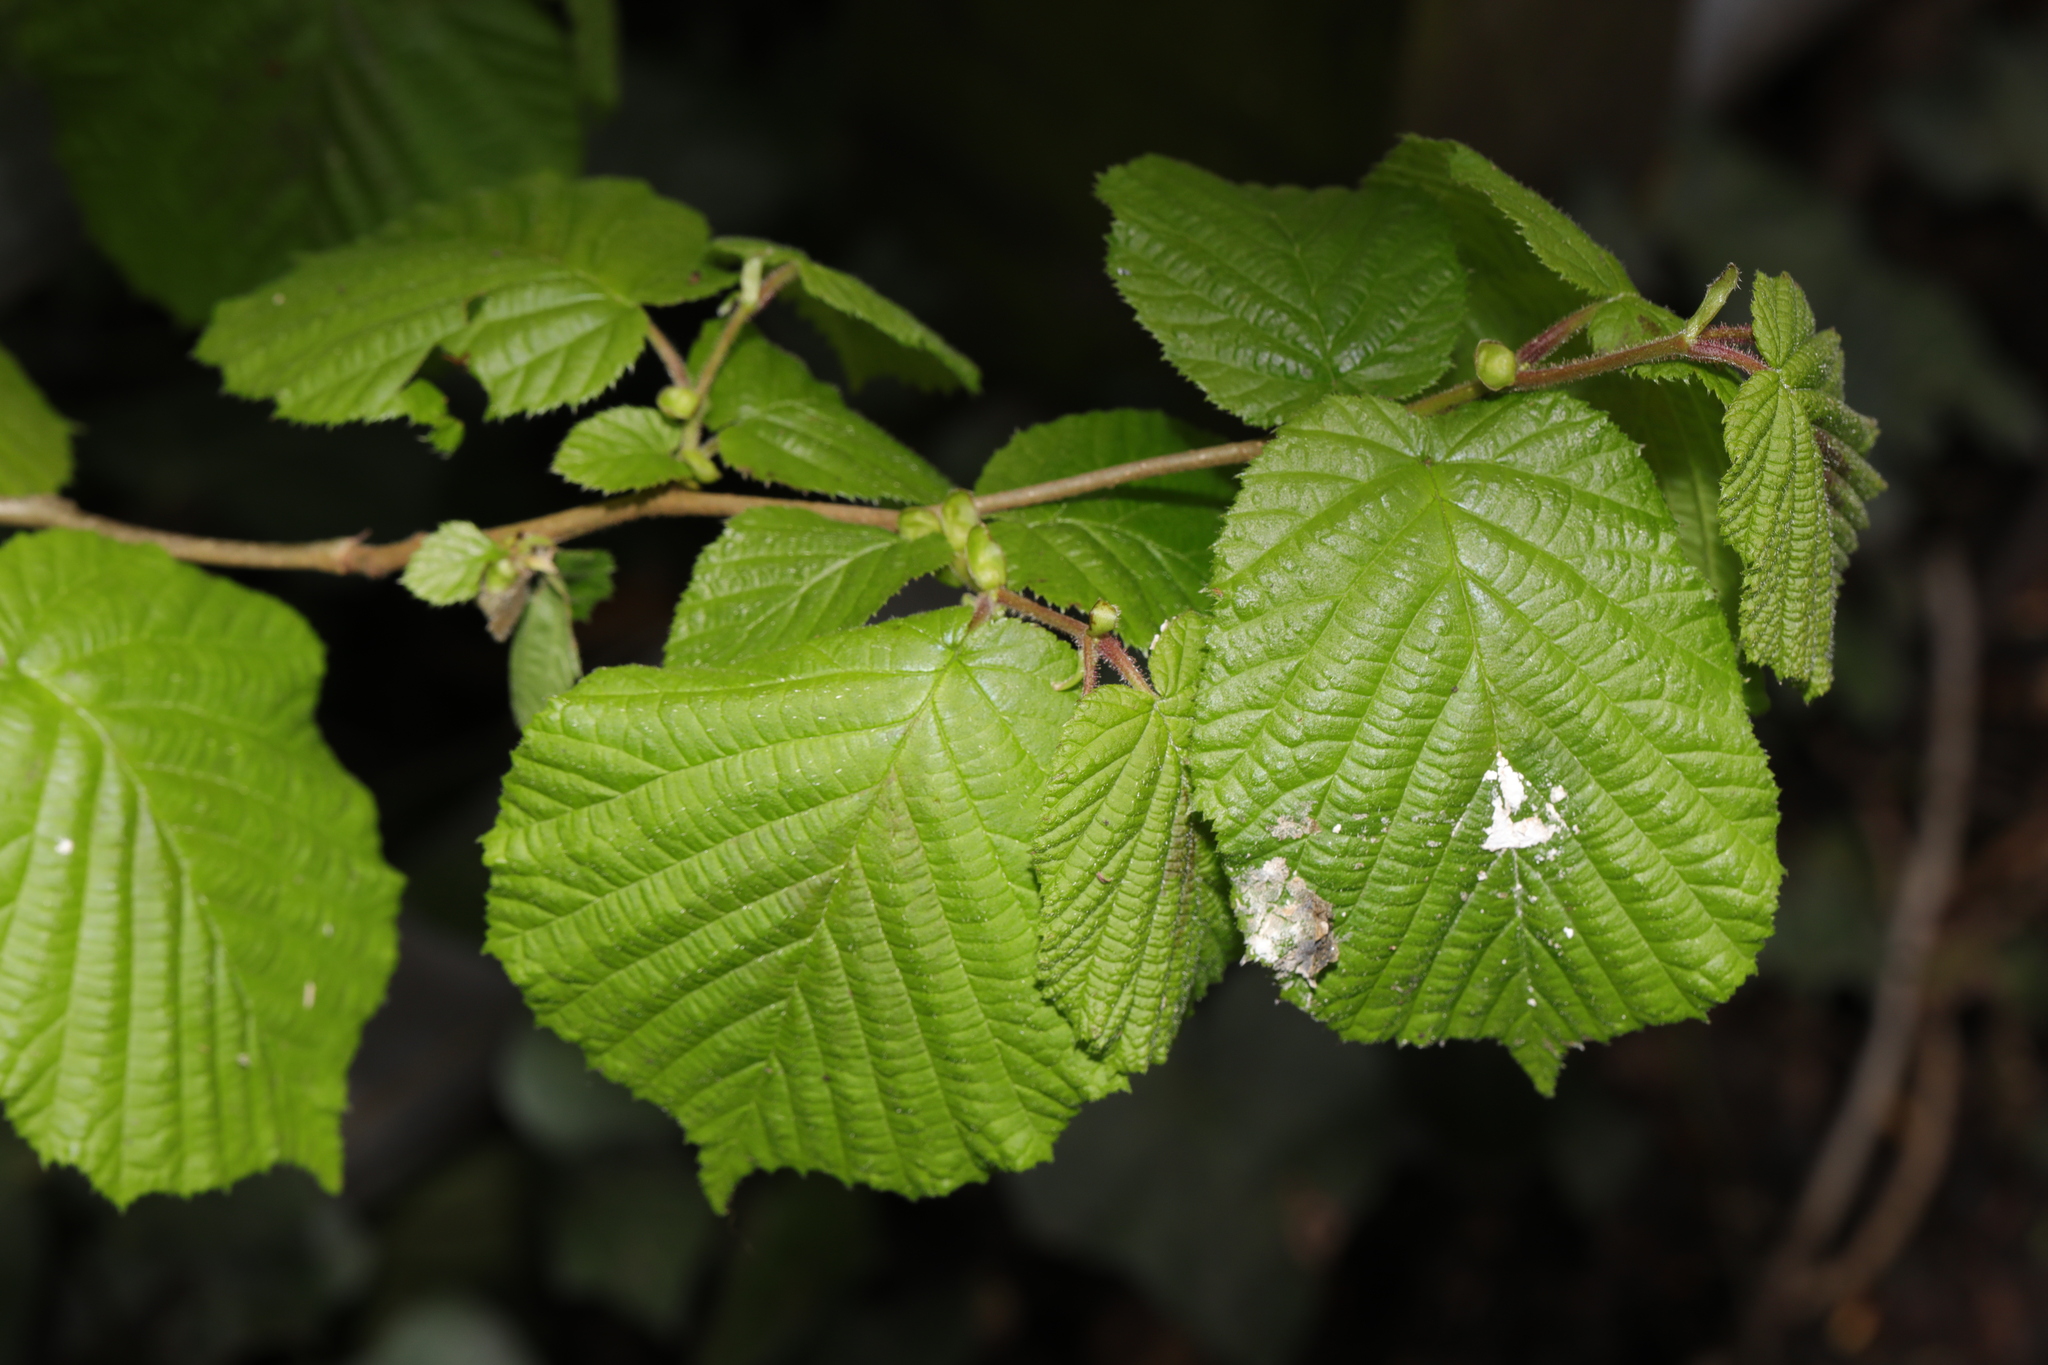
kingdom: Plantae
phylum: Tracheophyta
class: Magnoliopsida
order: Fagales
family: Betulaceae
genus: Corylus
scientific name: Corylus avellana
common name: European hazel
